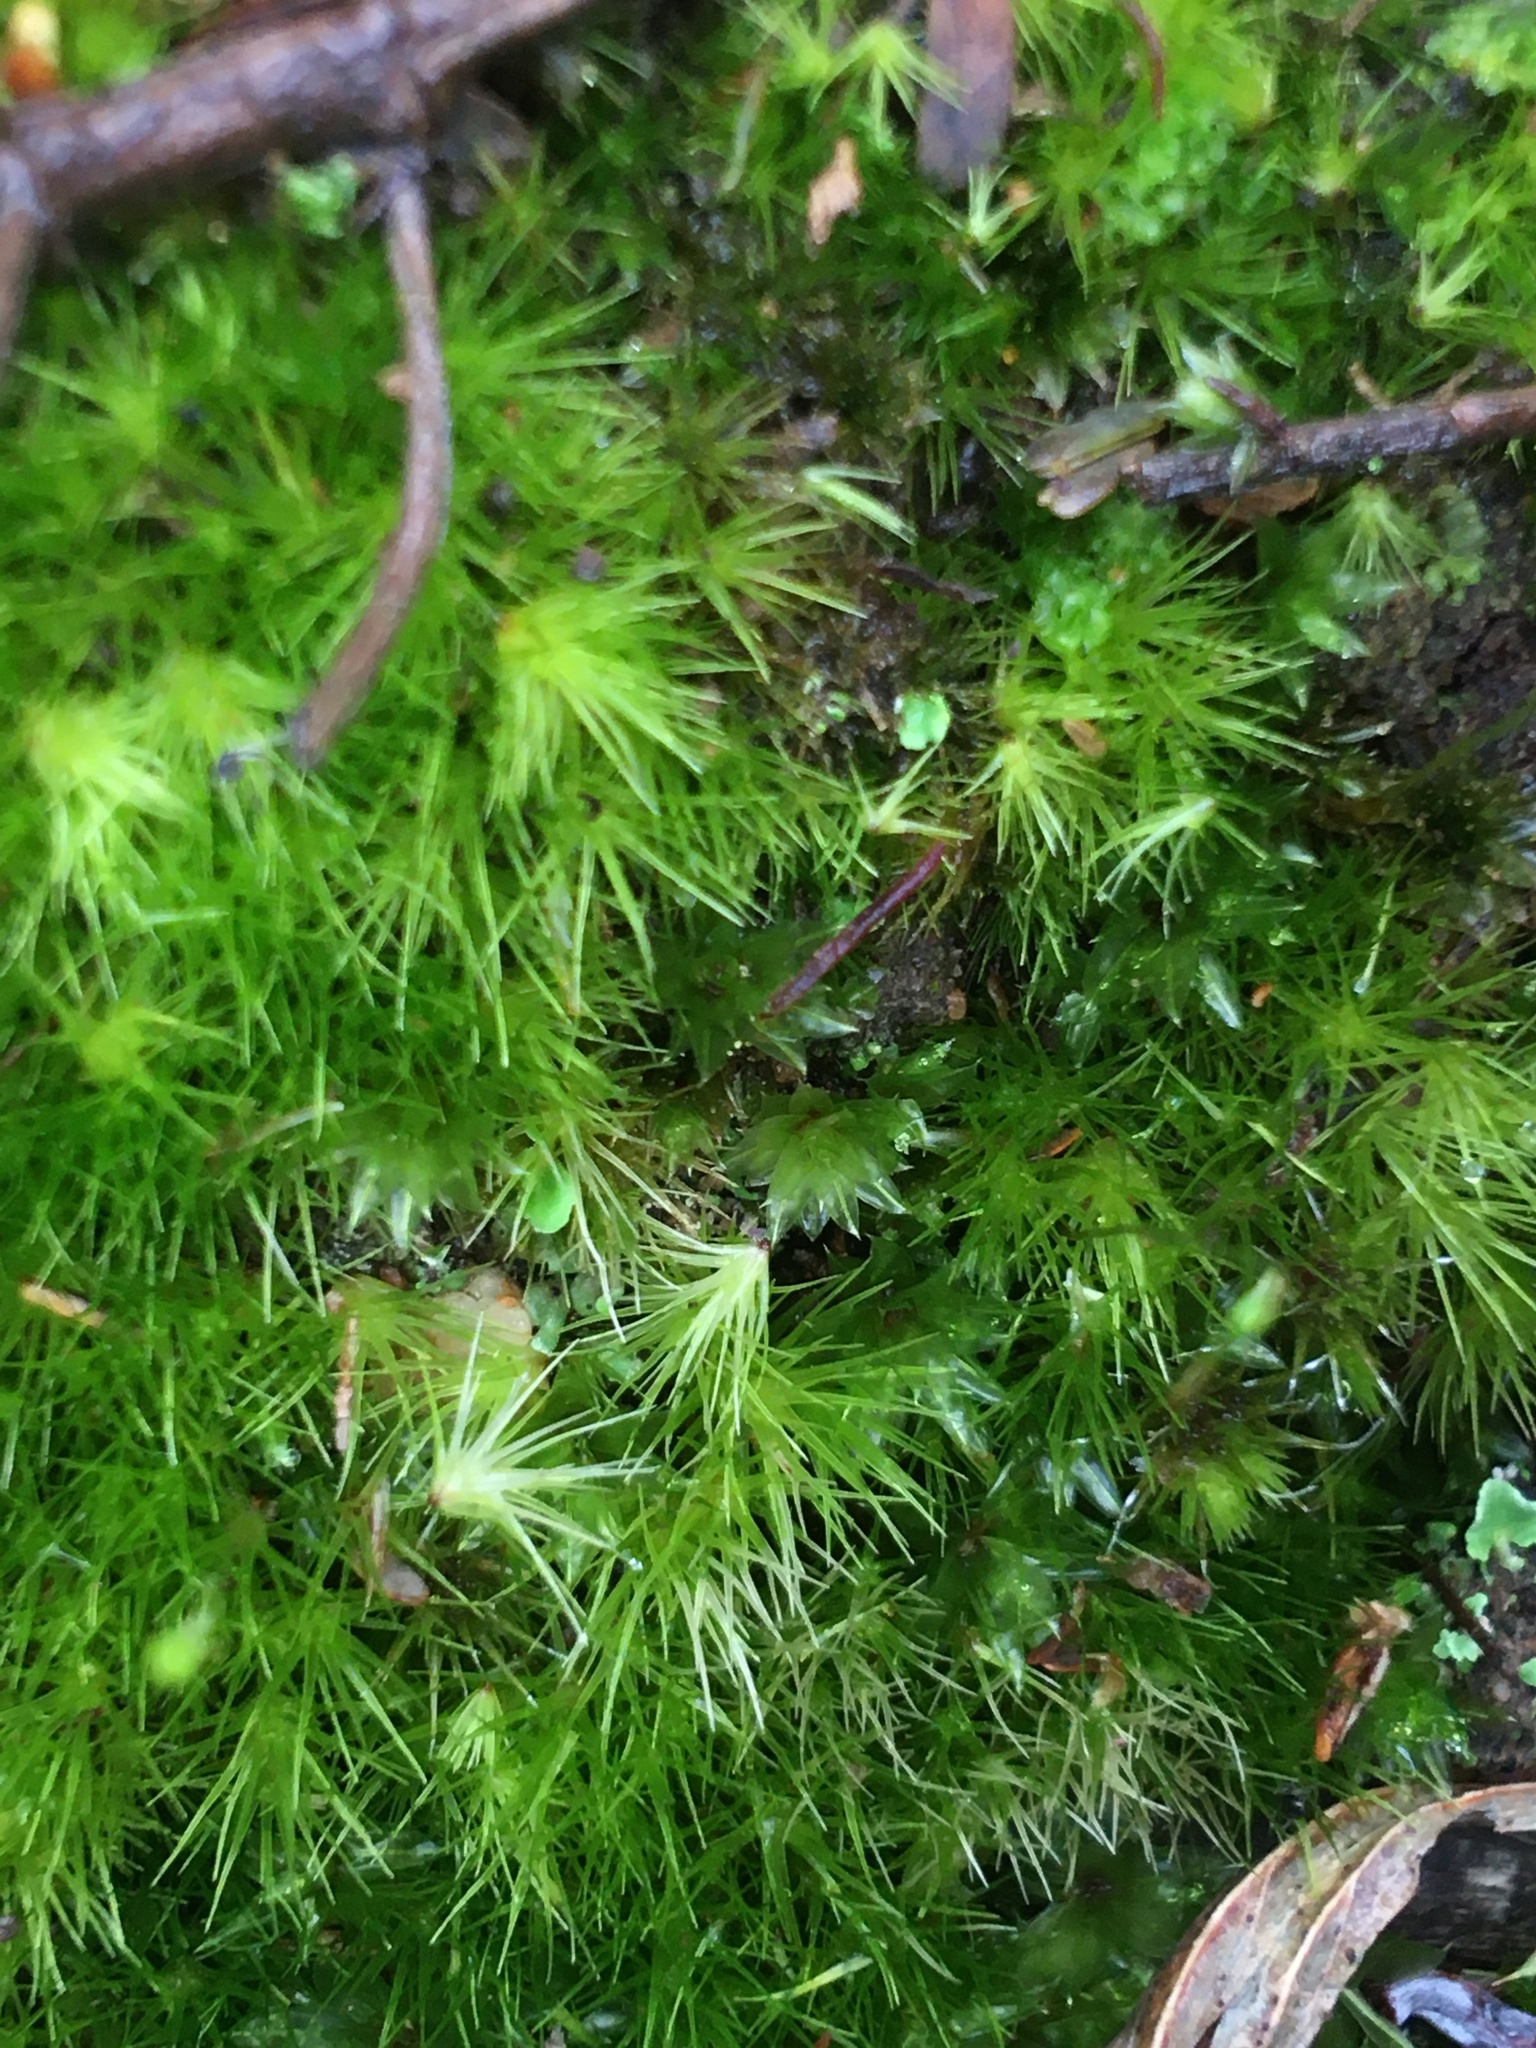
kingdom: Plantae
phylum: Bryophyta
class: Bryopsida
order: Dicranales
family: Leucobryaceae
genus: Campylopus
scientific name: Campylopus introflexus
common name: Heath star moss
